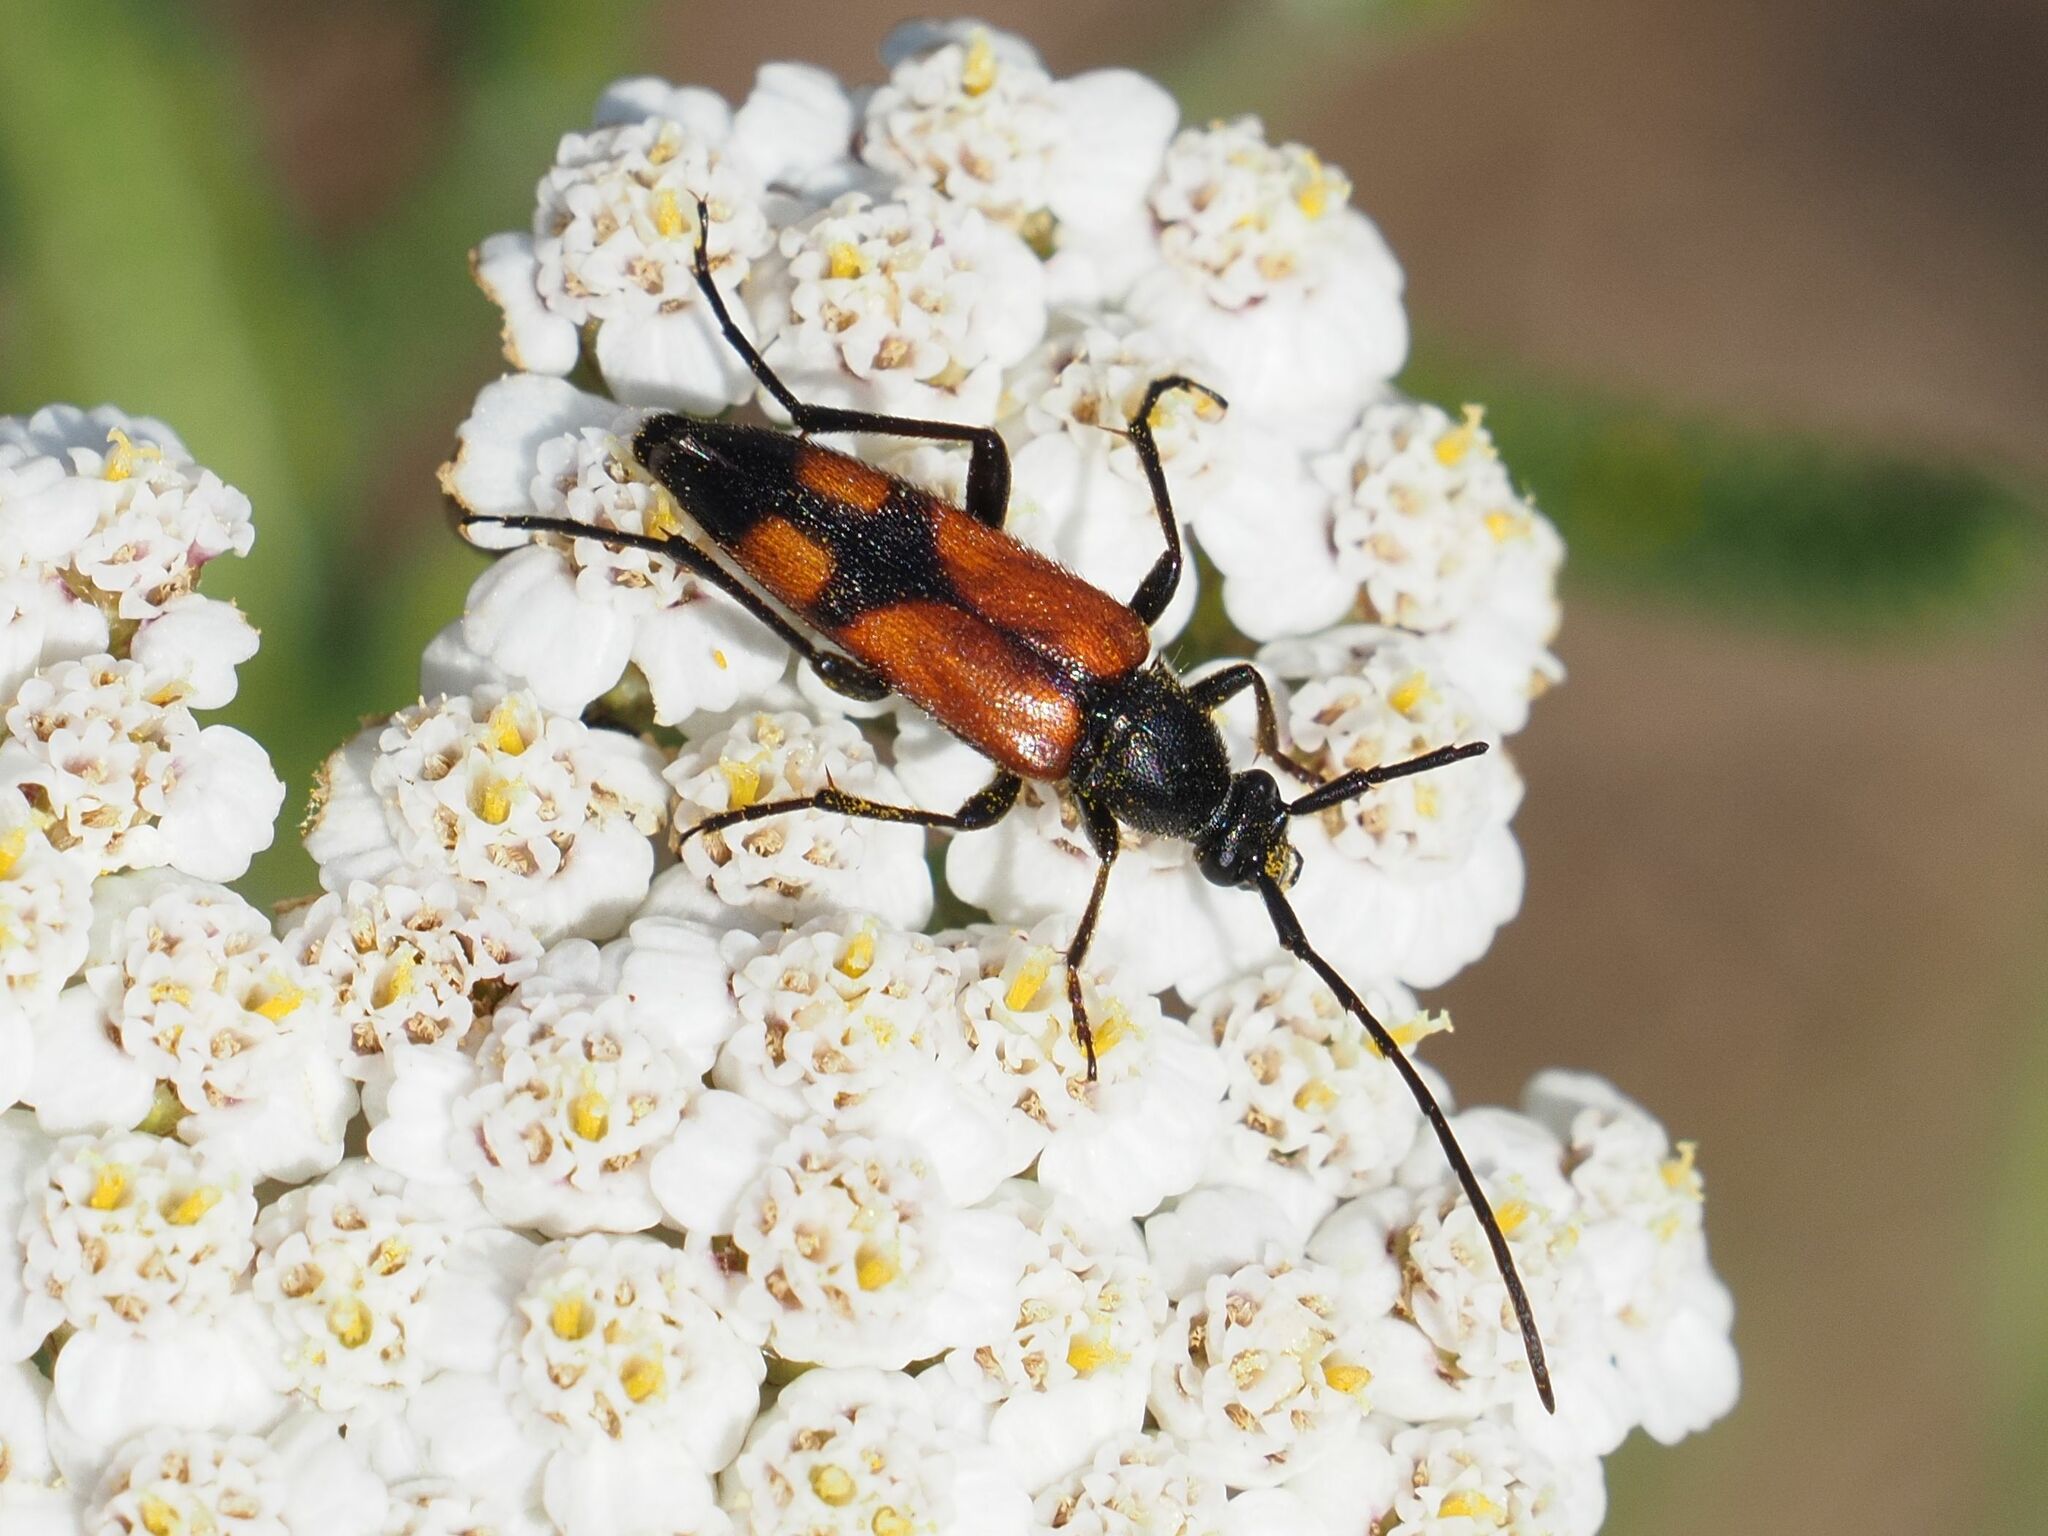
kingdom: Animalia
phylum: Arthropoda
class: Insecta
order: Coleoptera
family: Cerambycidae
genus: Stenurella
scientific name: Stenurella bifasciata
